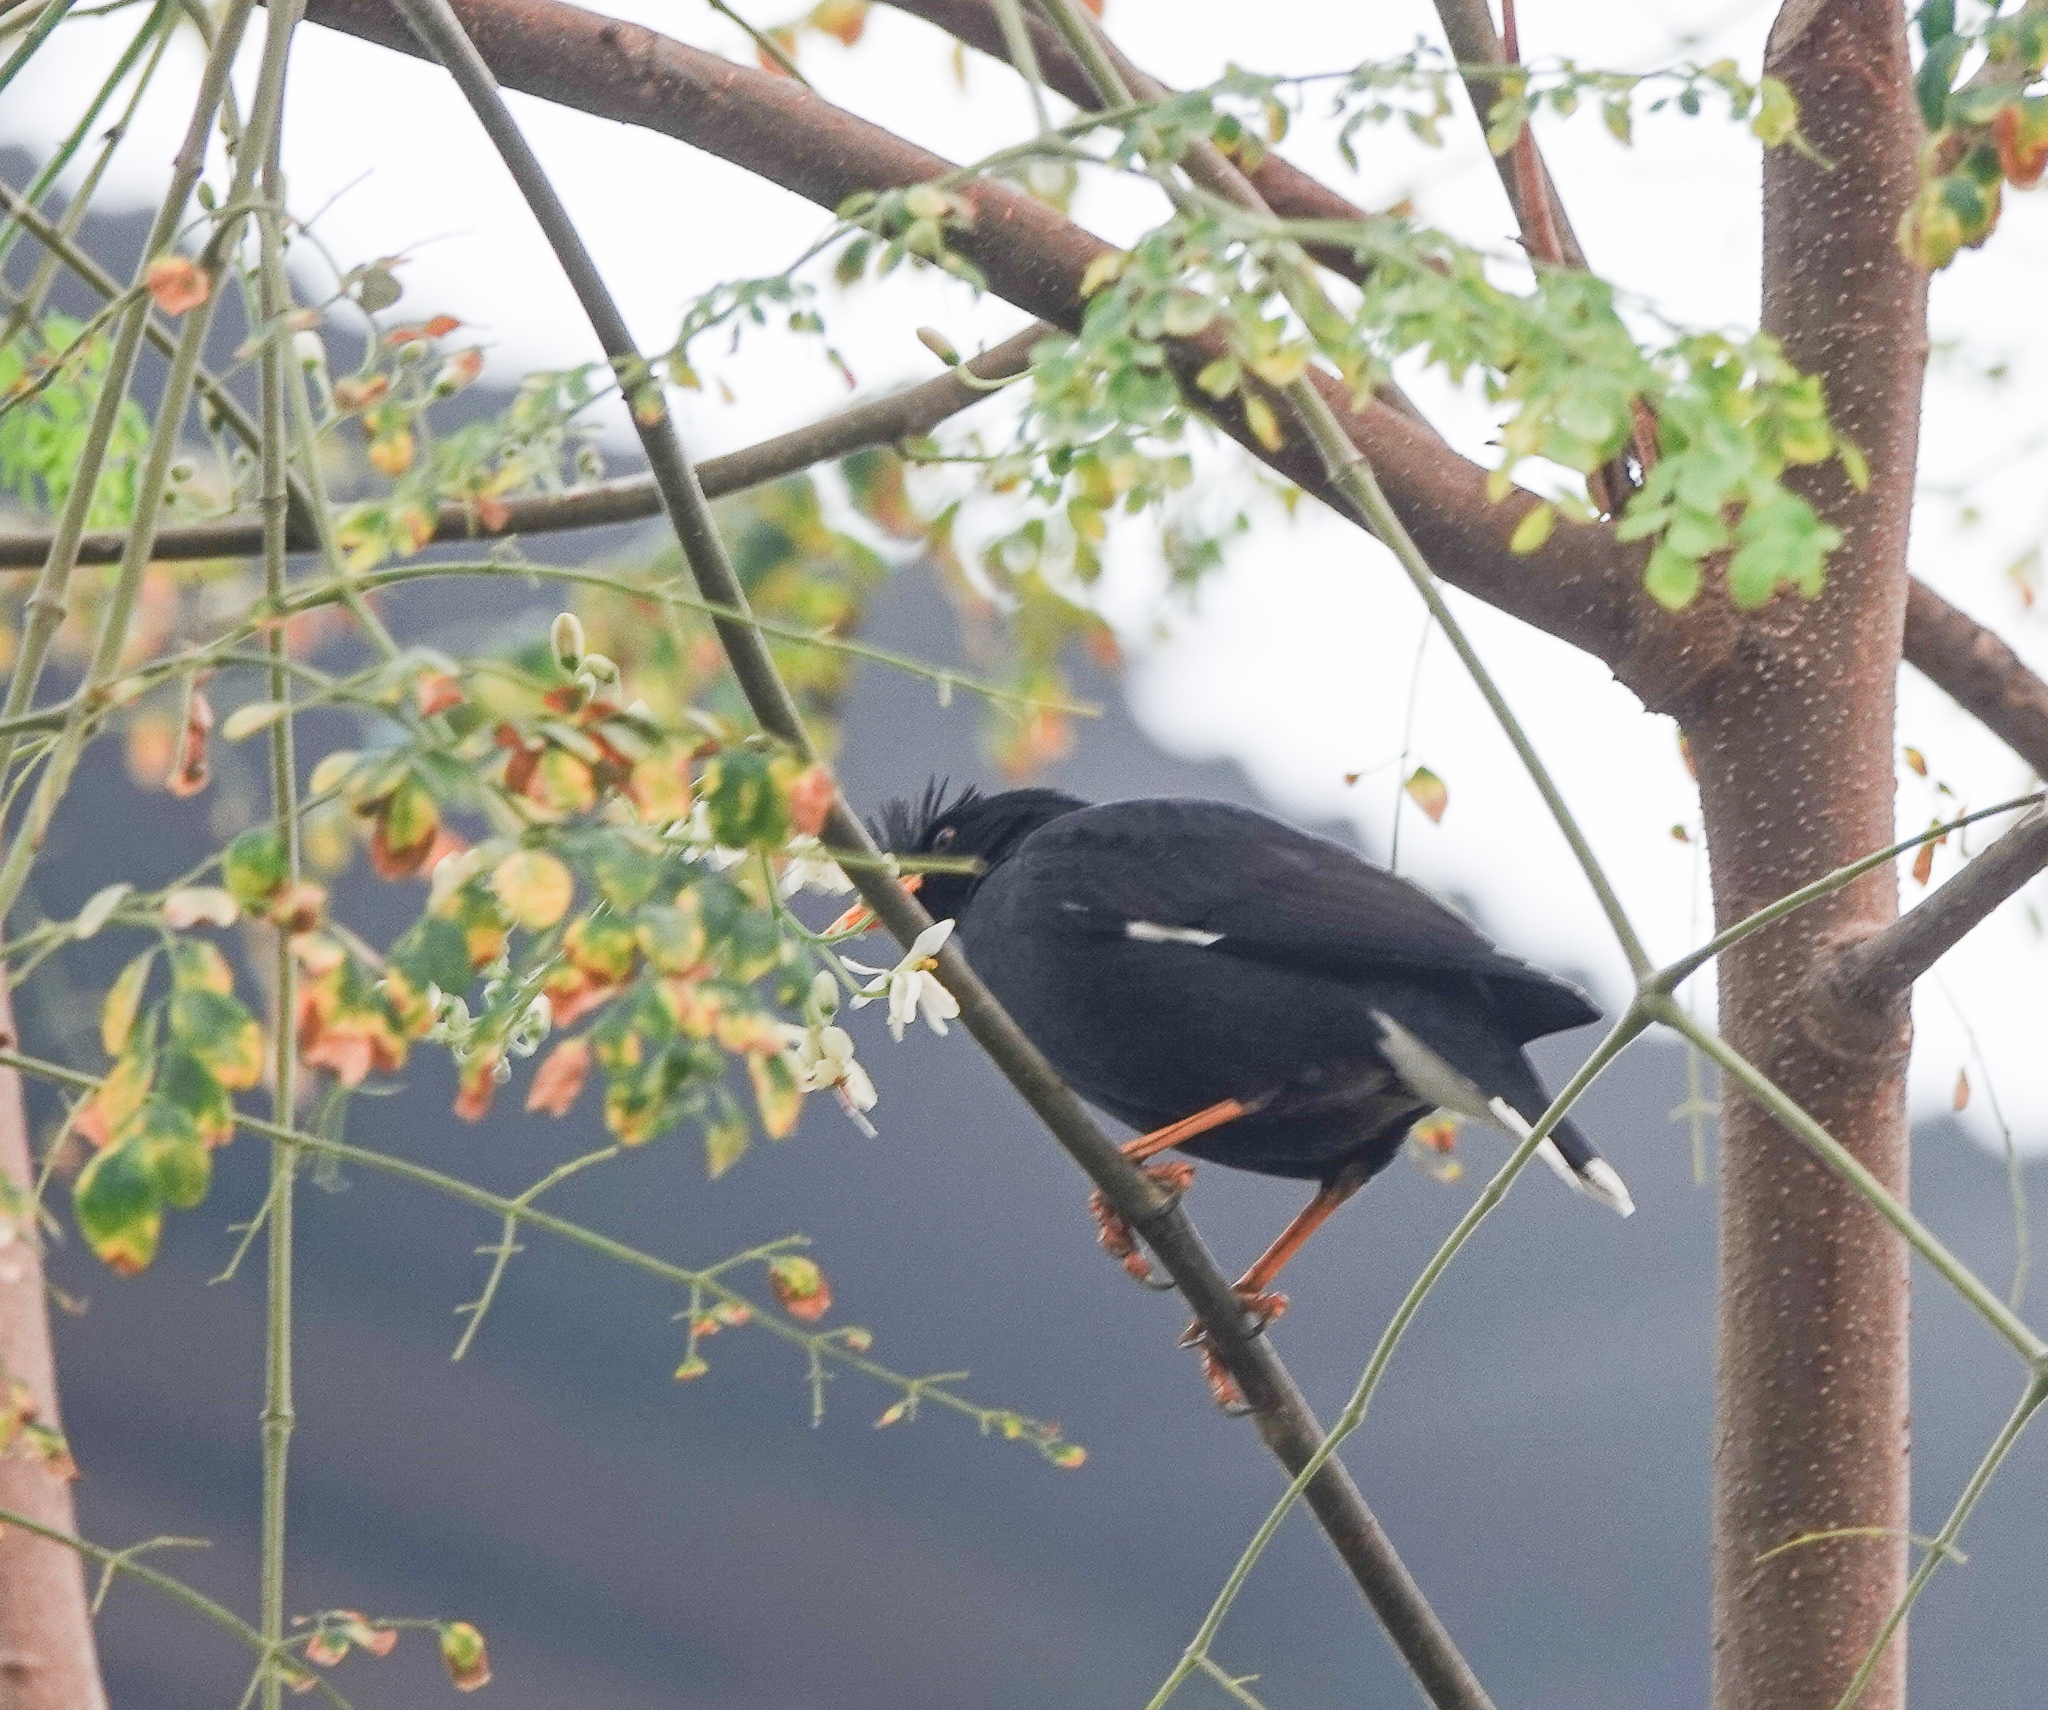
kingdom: Animalia
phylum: Chordata
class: Aves
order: Passeriformes
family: Sturnidae
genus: Acridotheres
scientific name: Acridotheres grandis
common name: Great myna
